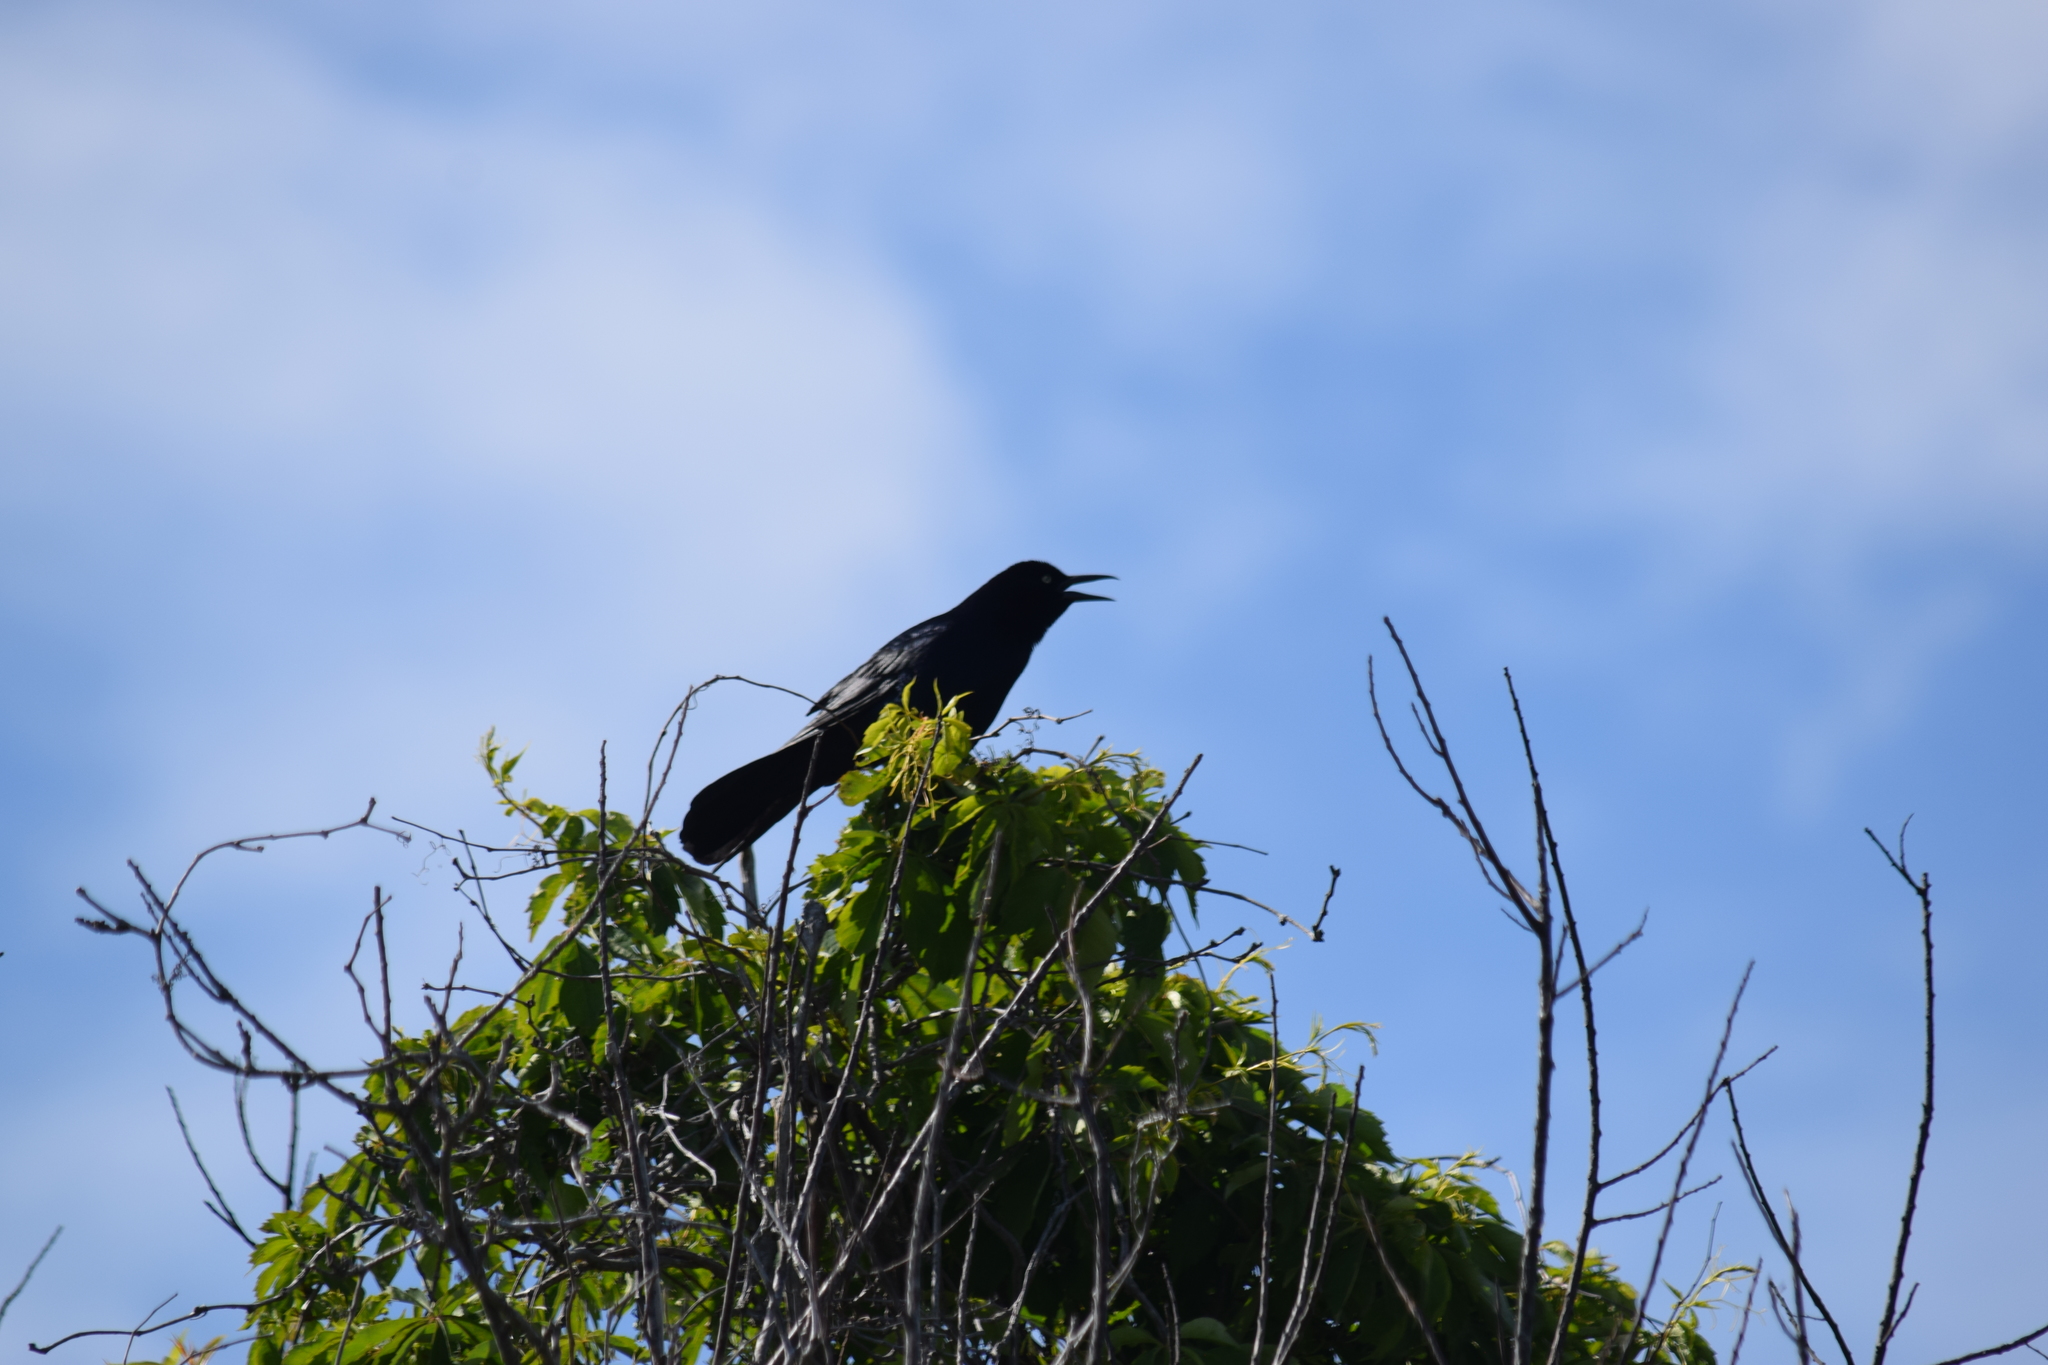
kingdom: Animalia
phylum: Chordata
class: Aves
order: Passeriformes
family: Icteridae
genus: Quiscalus
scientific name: Quiscalus major
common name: Boat-tailed grackle
